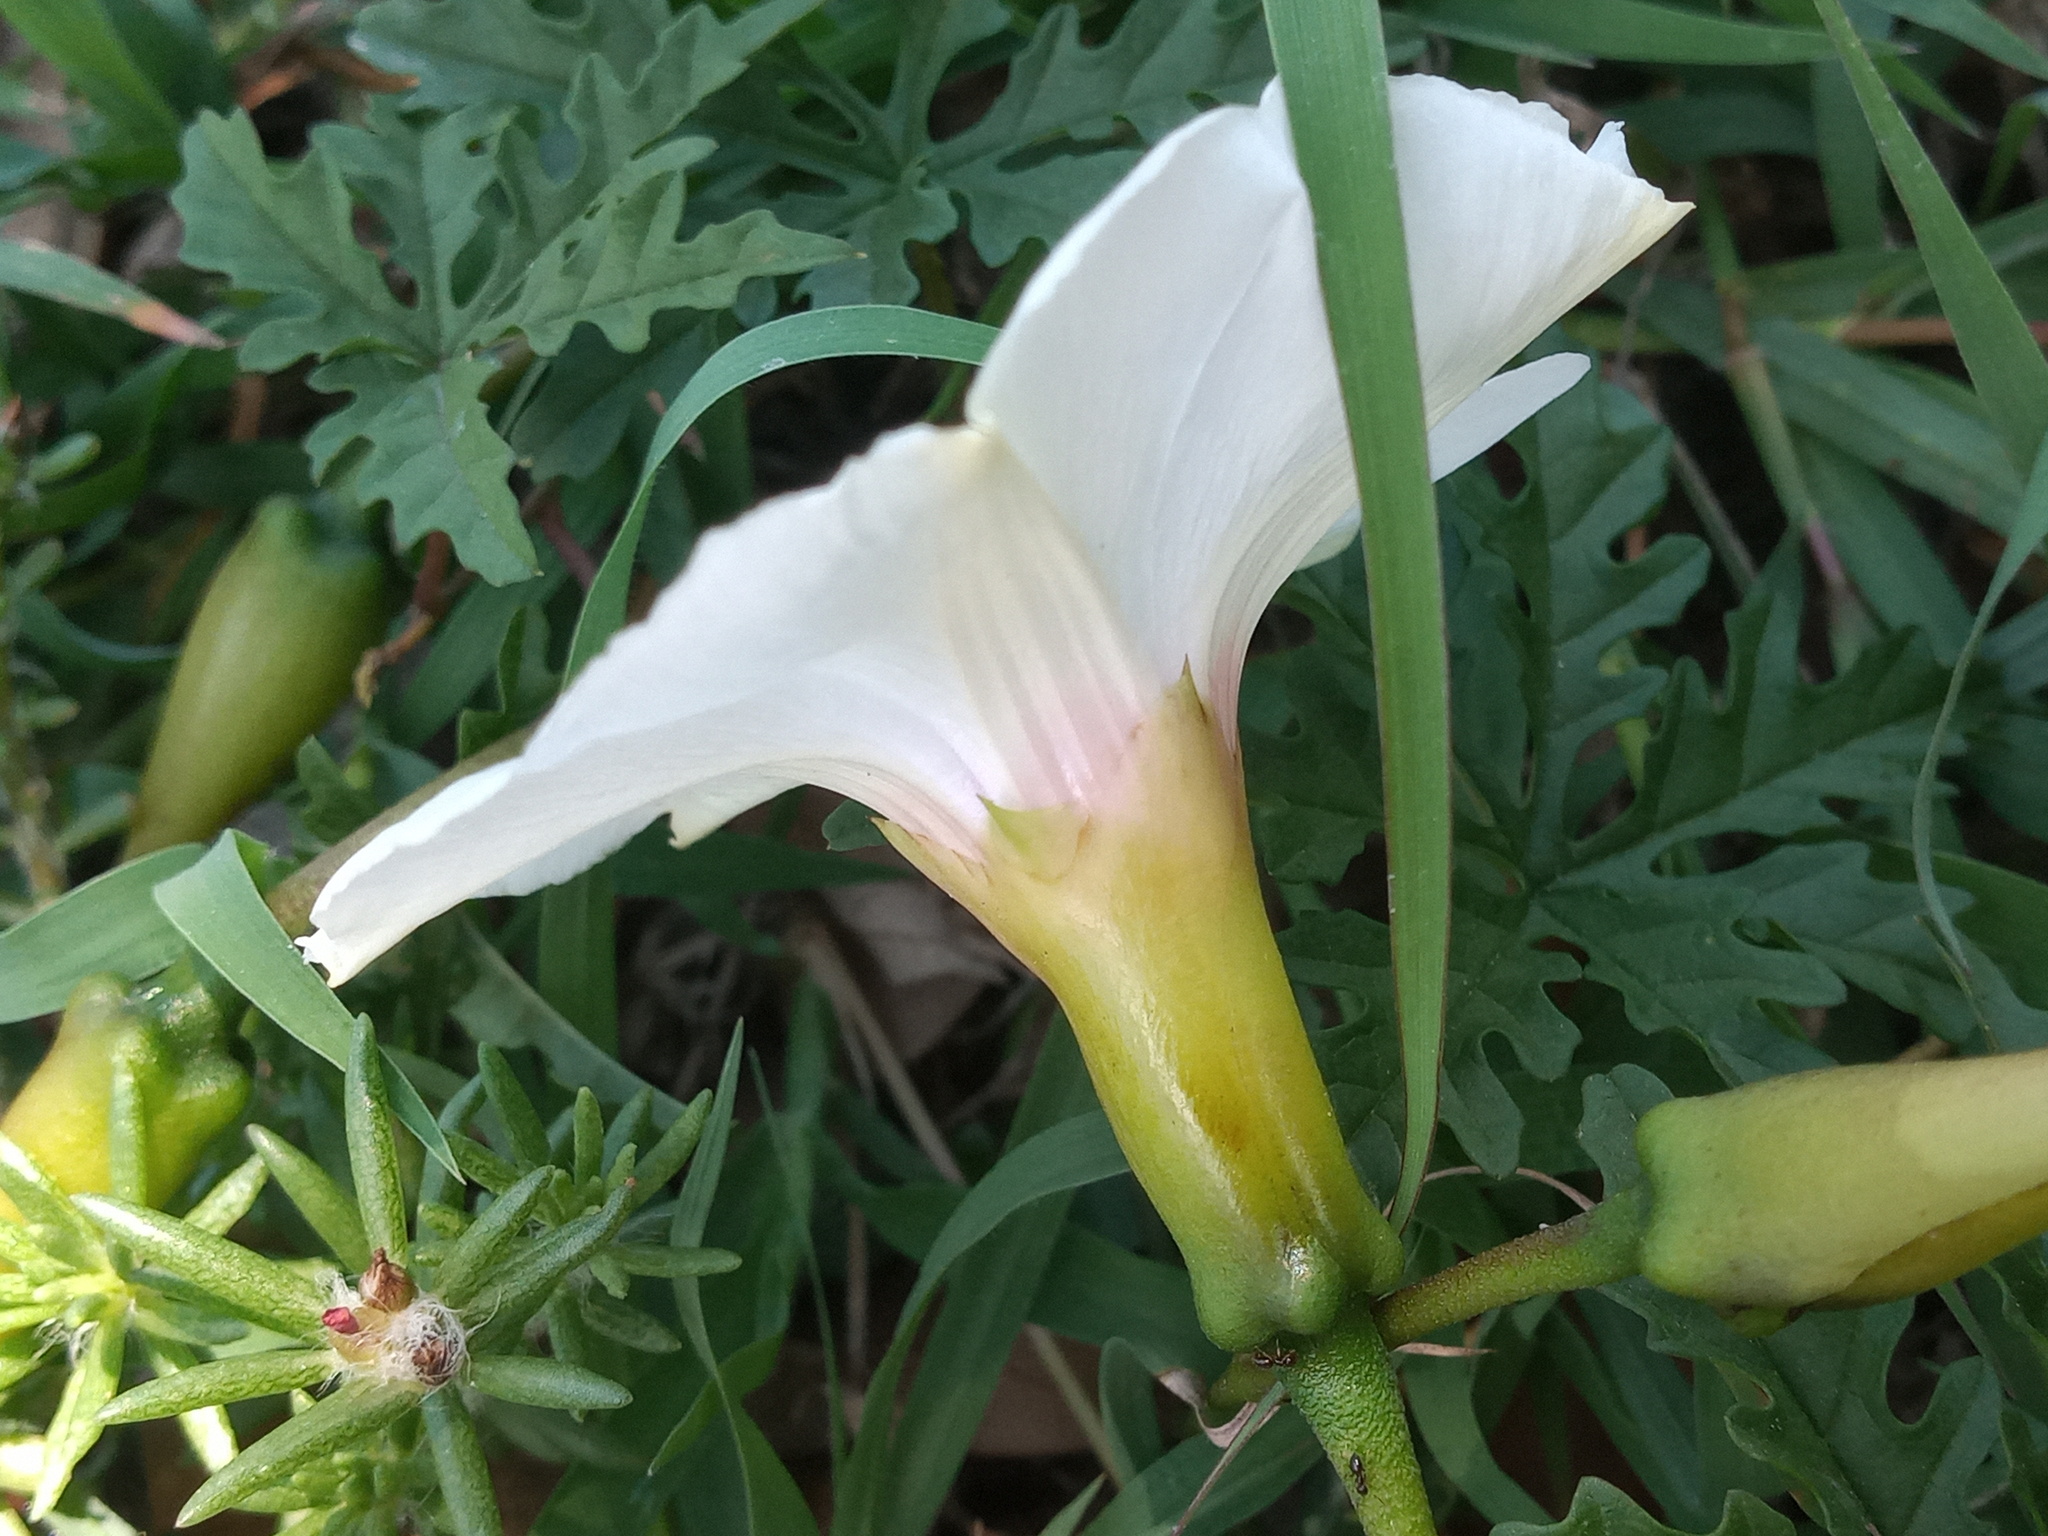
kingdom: Plantae
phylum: Tracheophyta
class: Magnoliopsida
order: Solanales
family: Convolvulaceae
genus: Distimake
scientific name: Distimake dissectus
